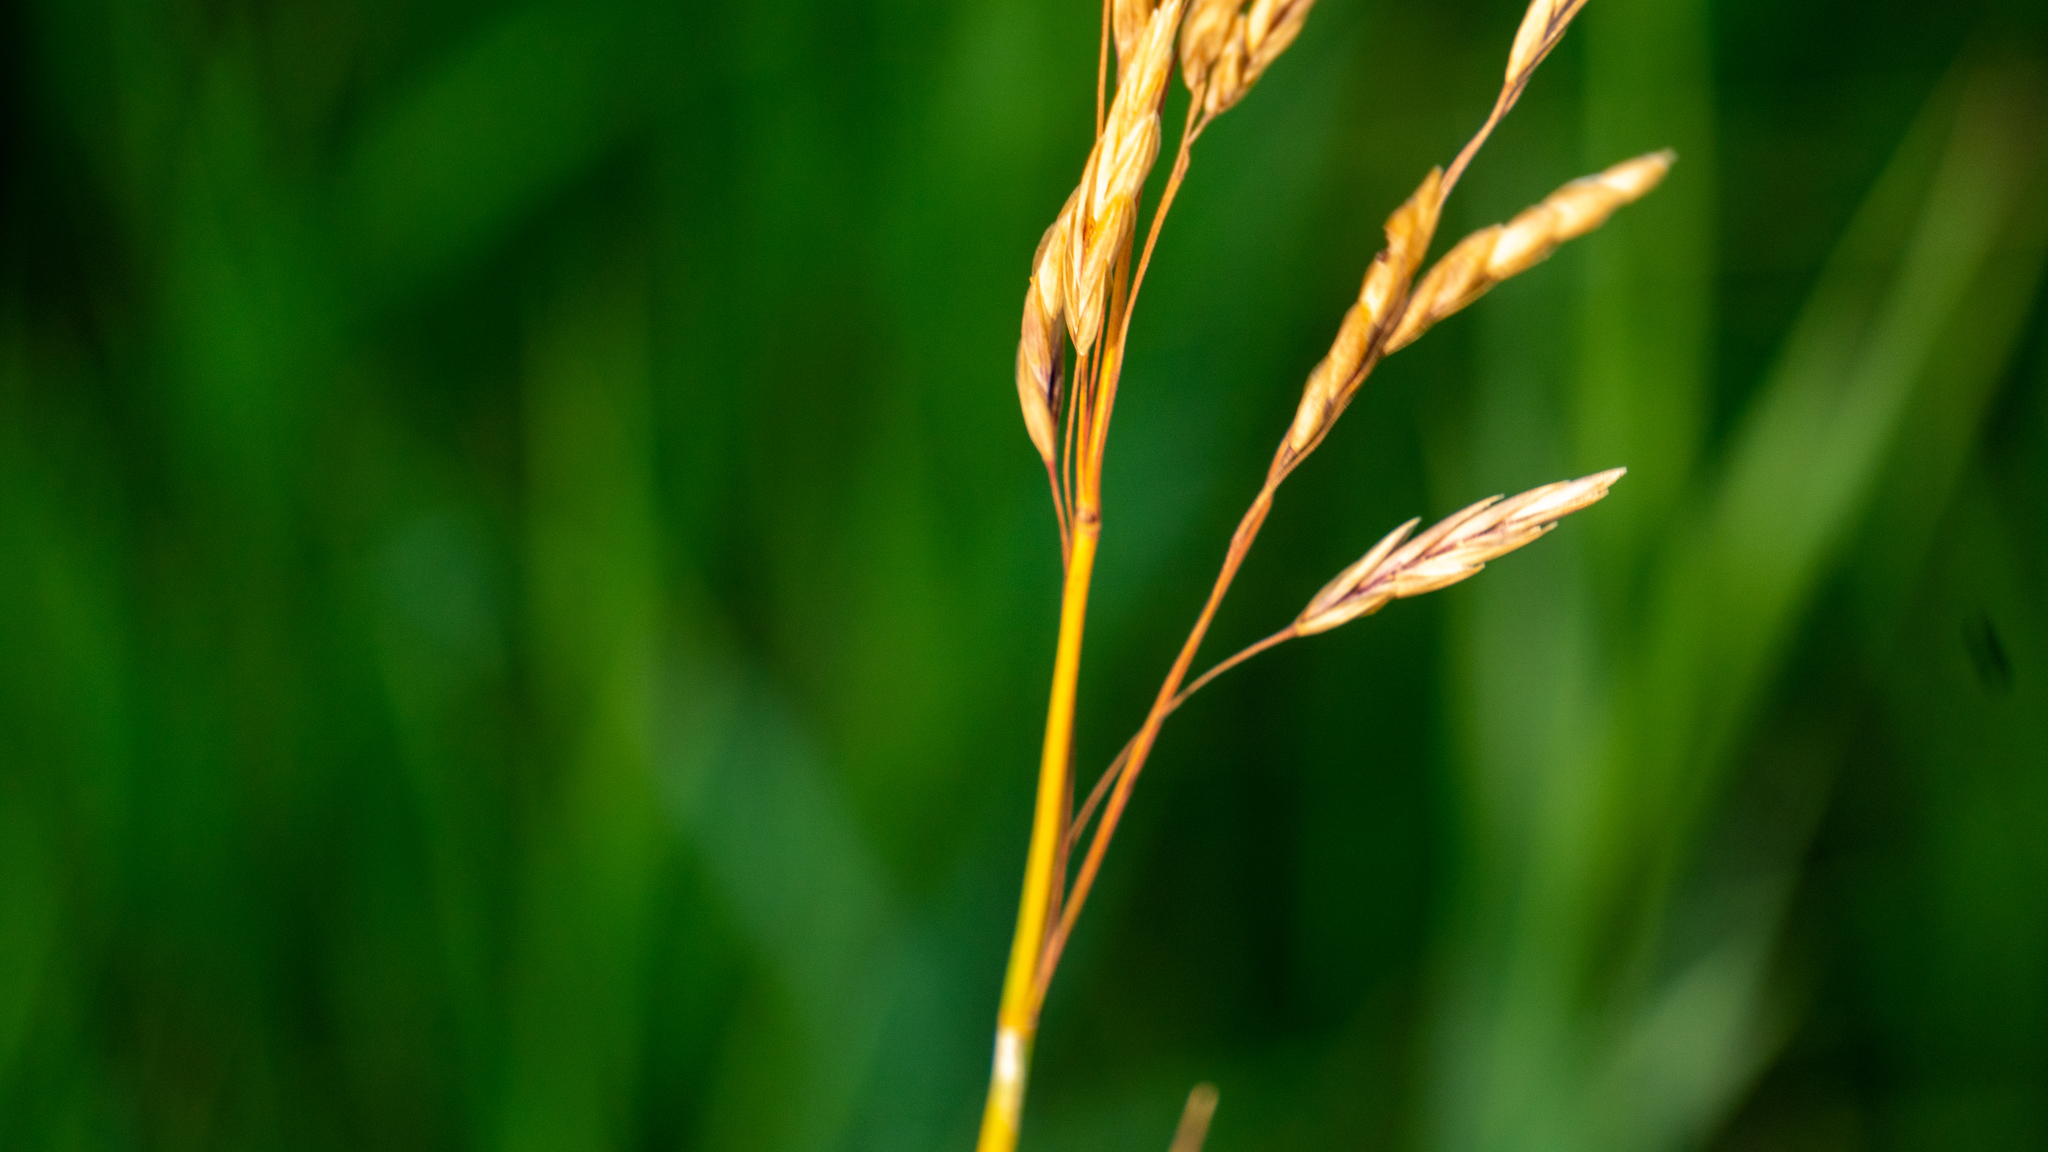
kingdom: Plantae
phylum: Tracheophyta
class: Liliopsida
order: Poales
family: Poaceae
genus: Bromus
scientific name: Bromus inermis
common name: Smooth brome
